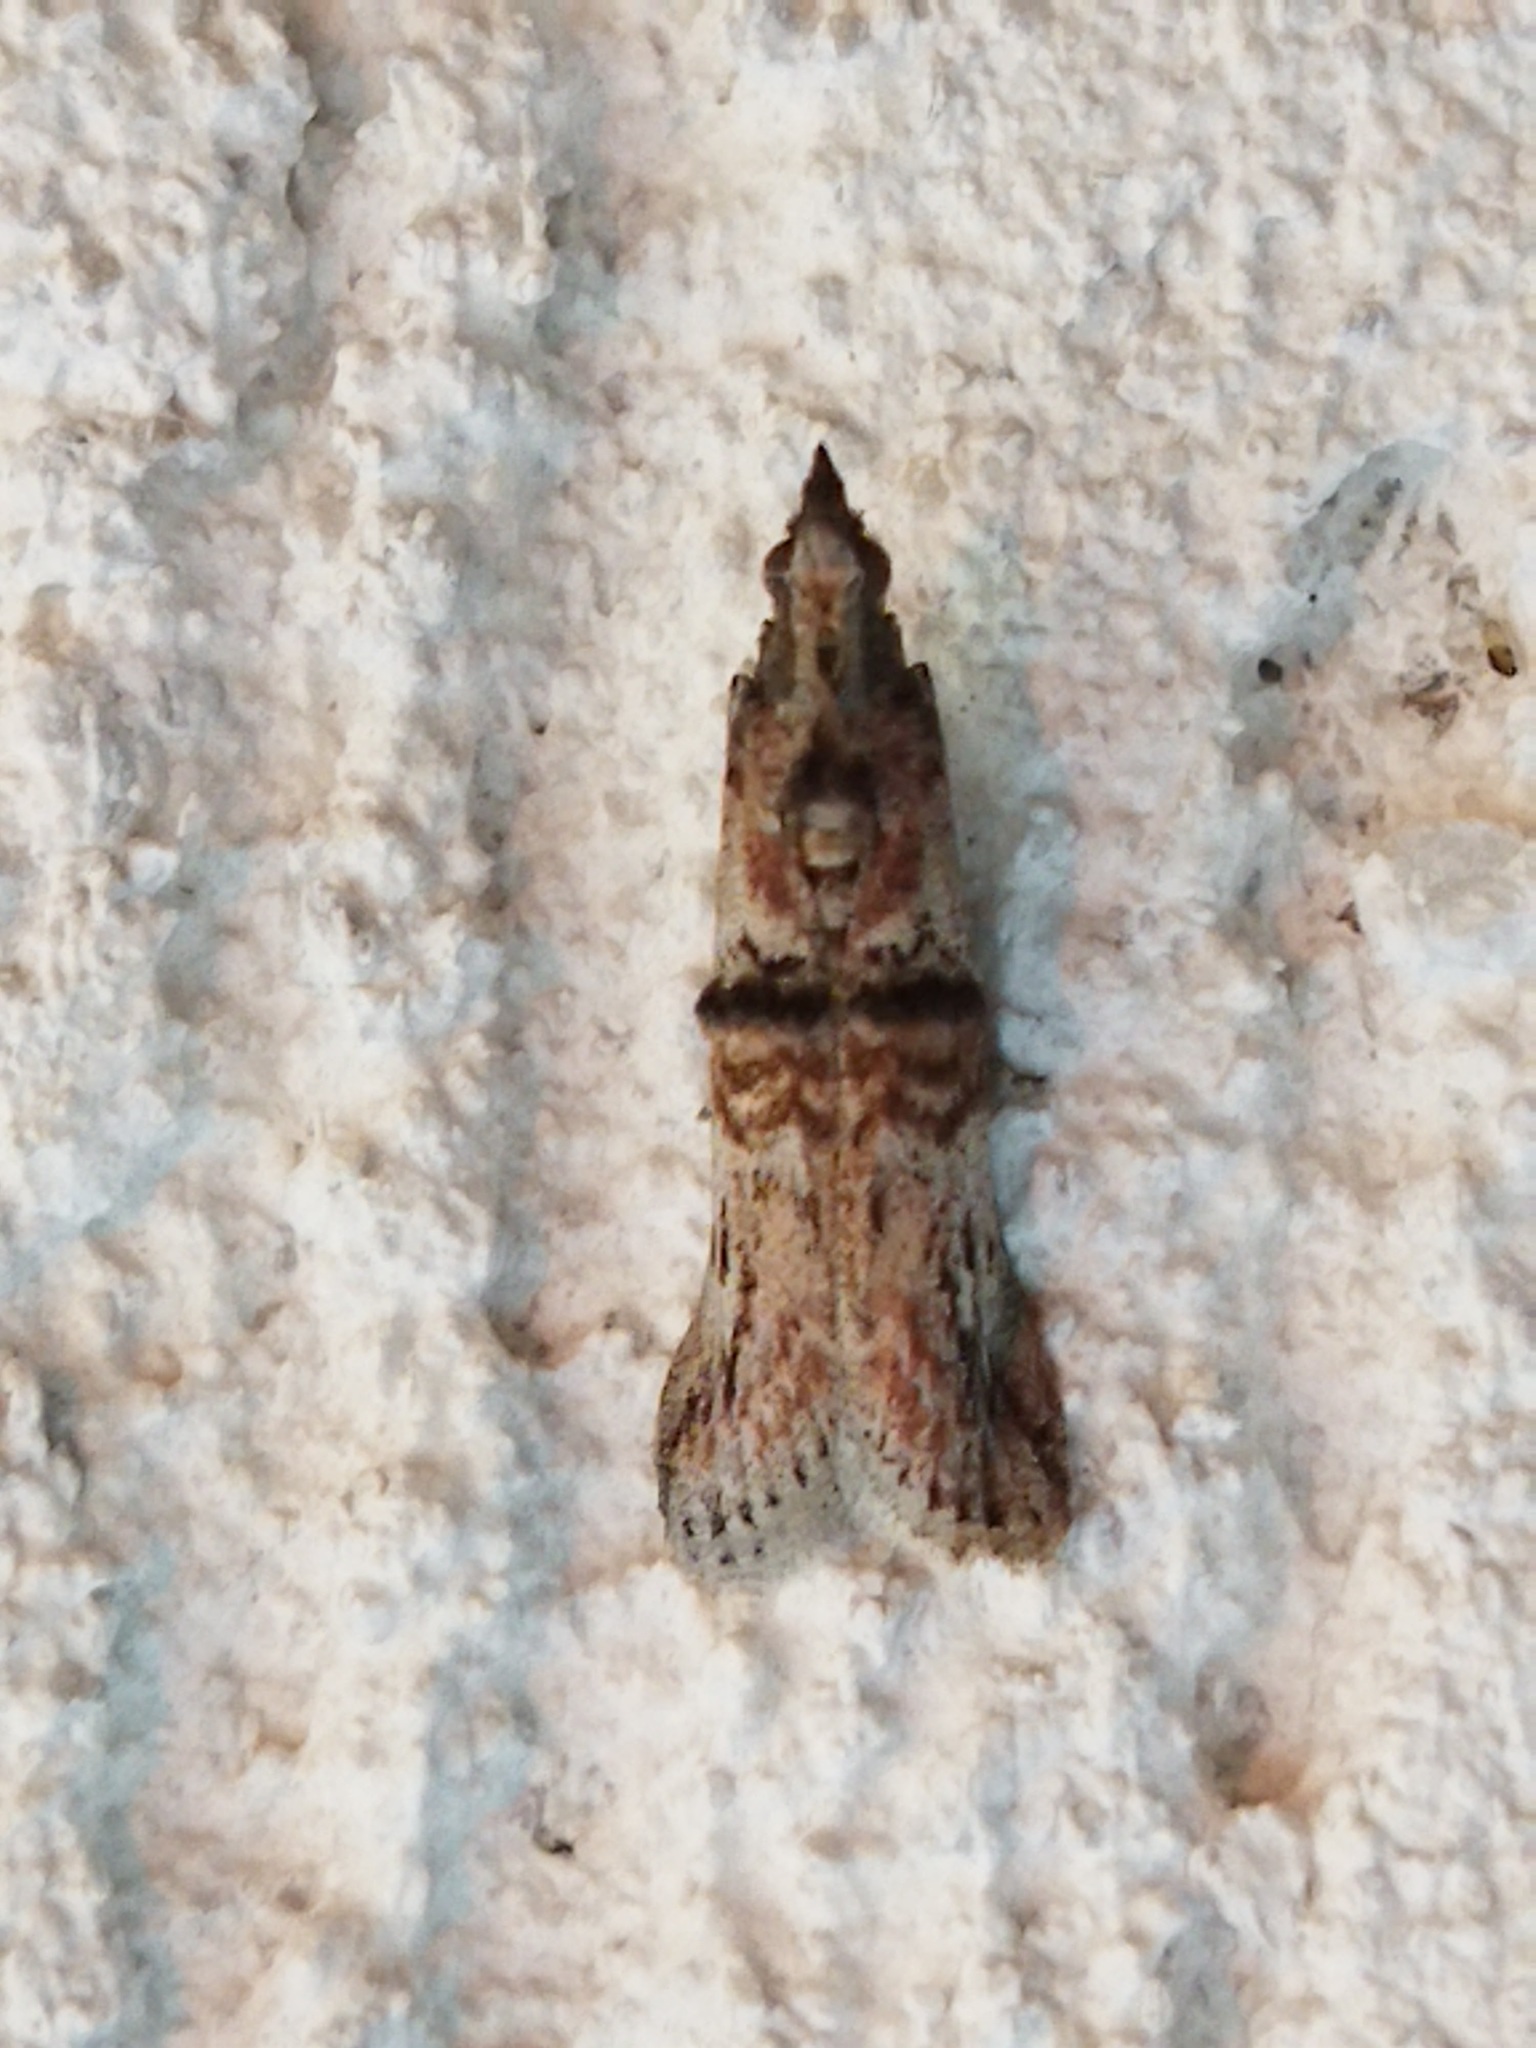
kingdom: Animalia
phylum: Arthropoda
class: Insecta
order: Lepidoptera
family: Pyralidae
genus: Nephopterix
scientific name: Nephopterix angustella
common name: Spindle knot-horn
